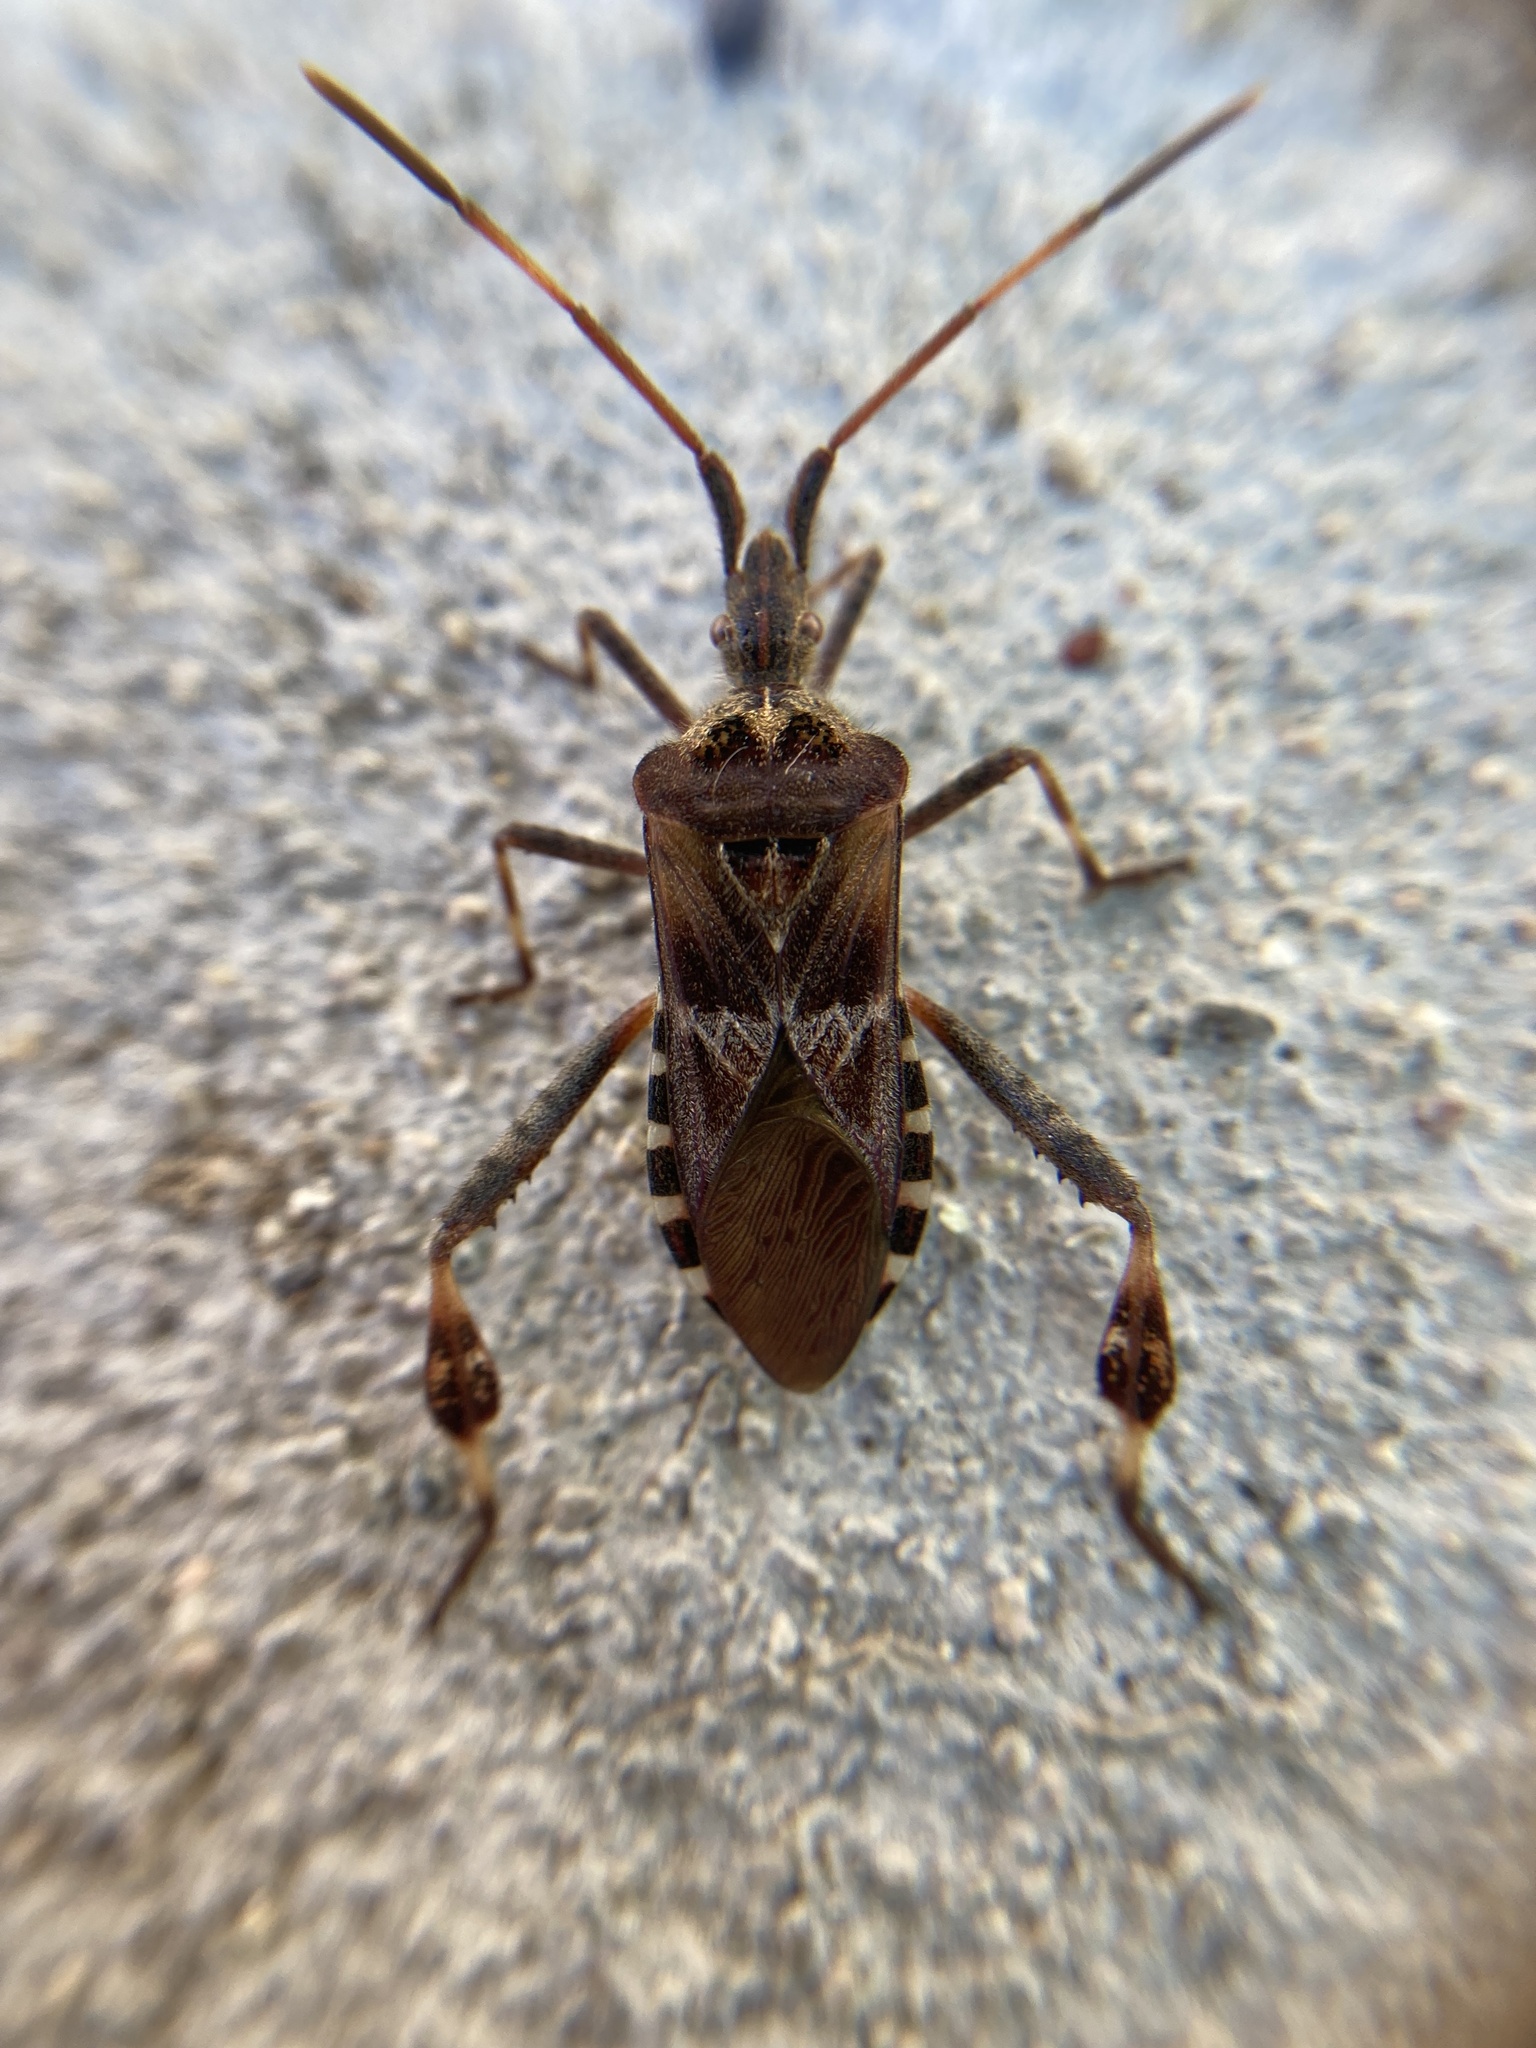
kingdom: Animalia
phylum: Arthropoda
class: Insecta
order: Hemiptera
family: Coreidae
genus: Leptoglossus
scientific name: Leptoglossus occidentalis
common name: Western conifer-seed bug
